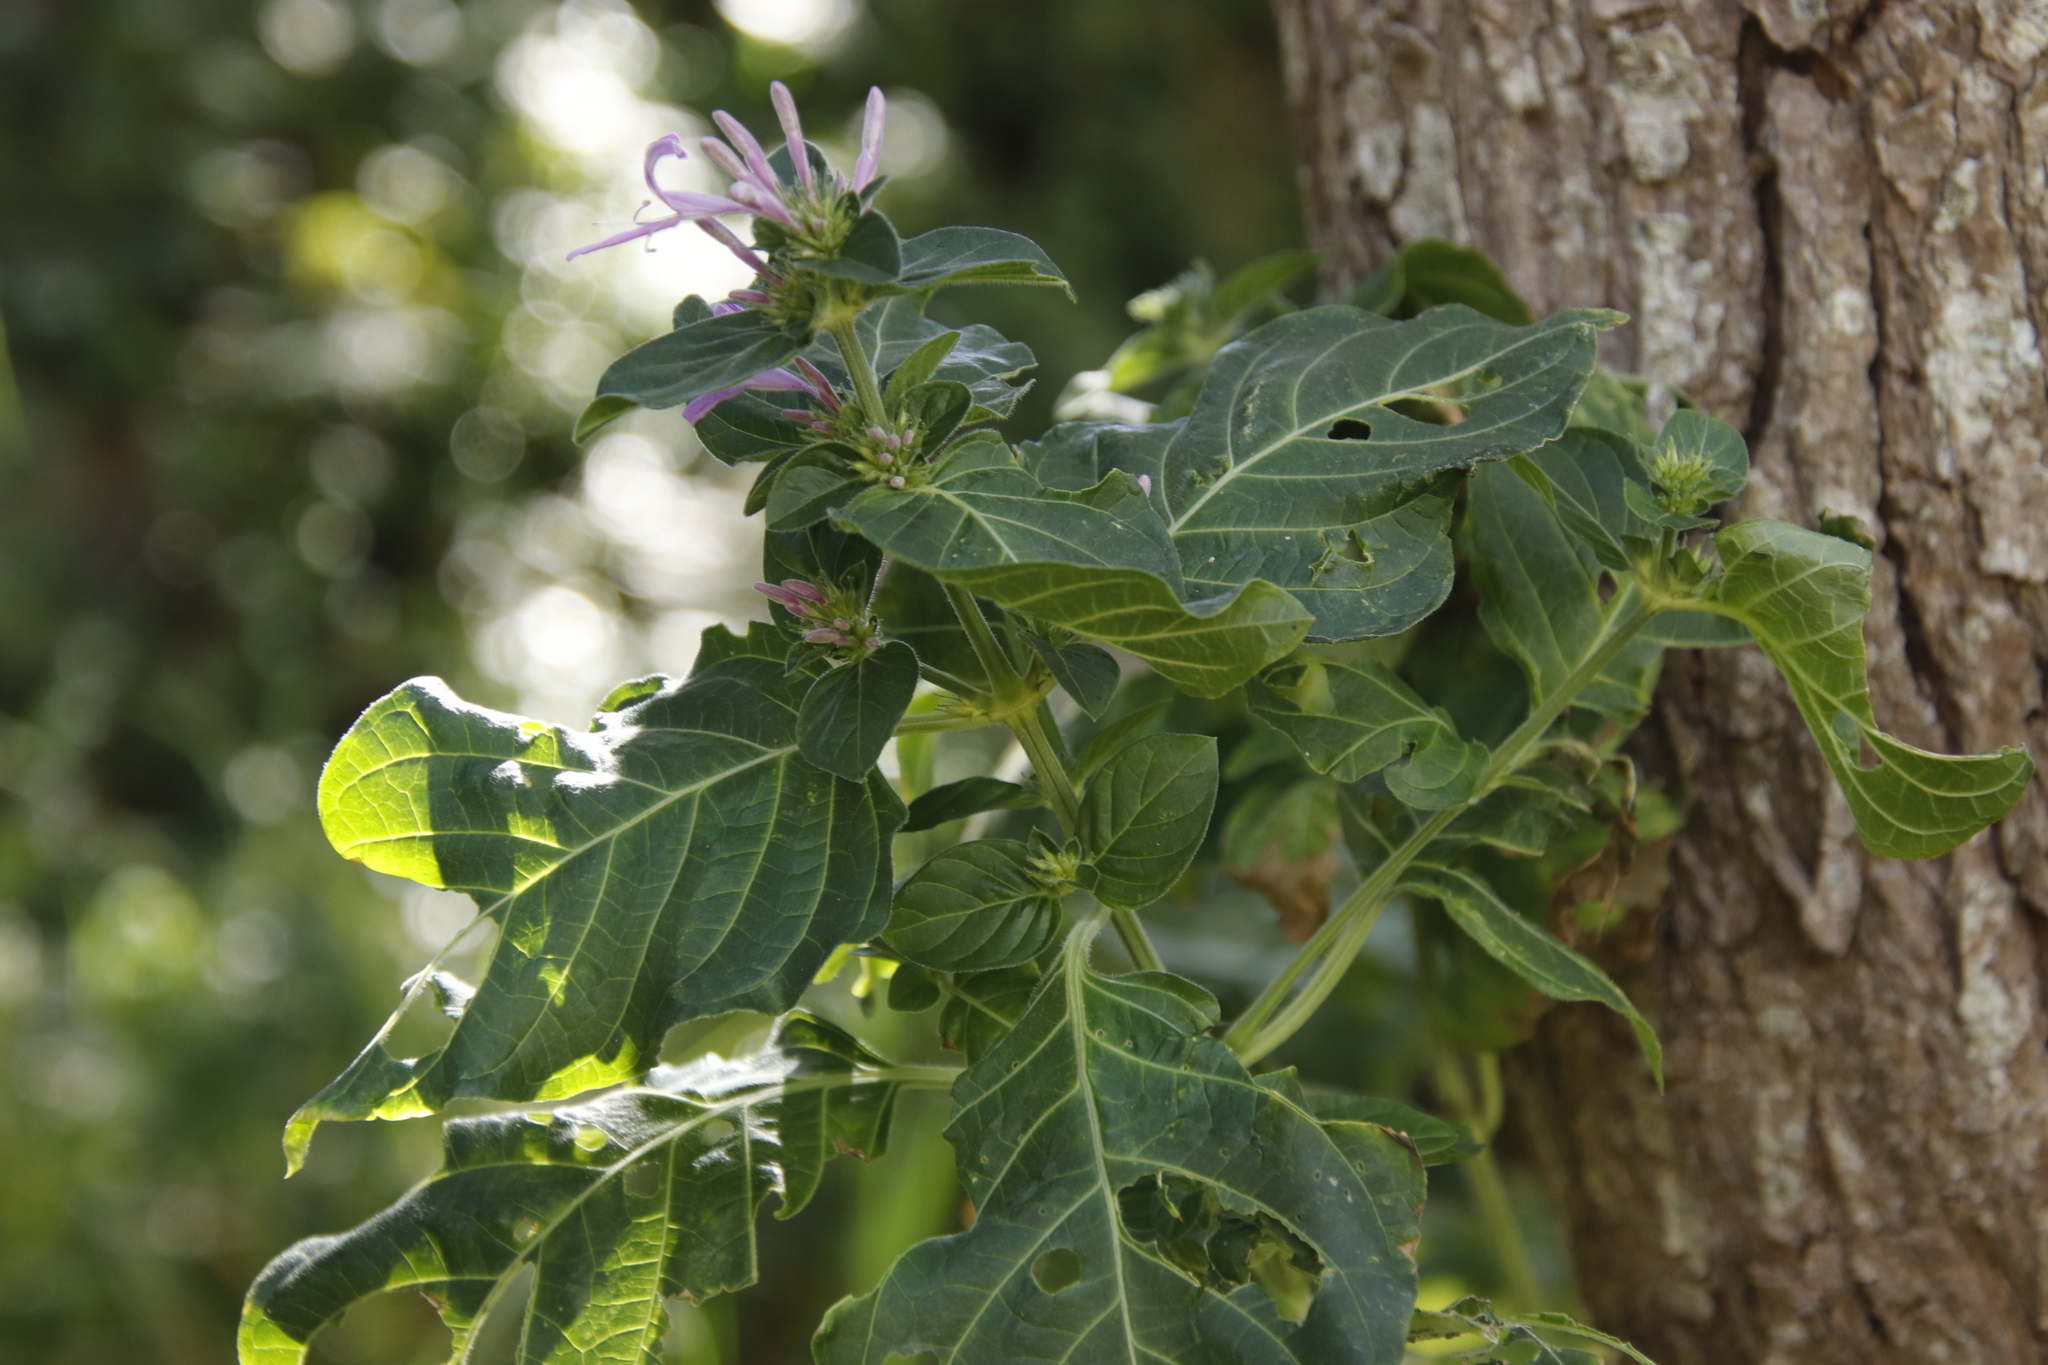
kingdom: Plantae
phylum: Tracheophyta
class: Magnoliopsida
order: Lamiales
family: Acanthaceae
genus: Hypoestes
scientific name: Hypoestes aristata
